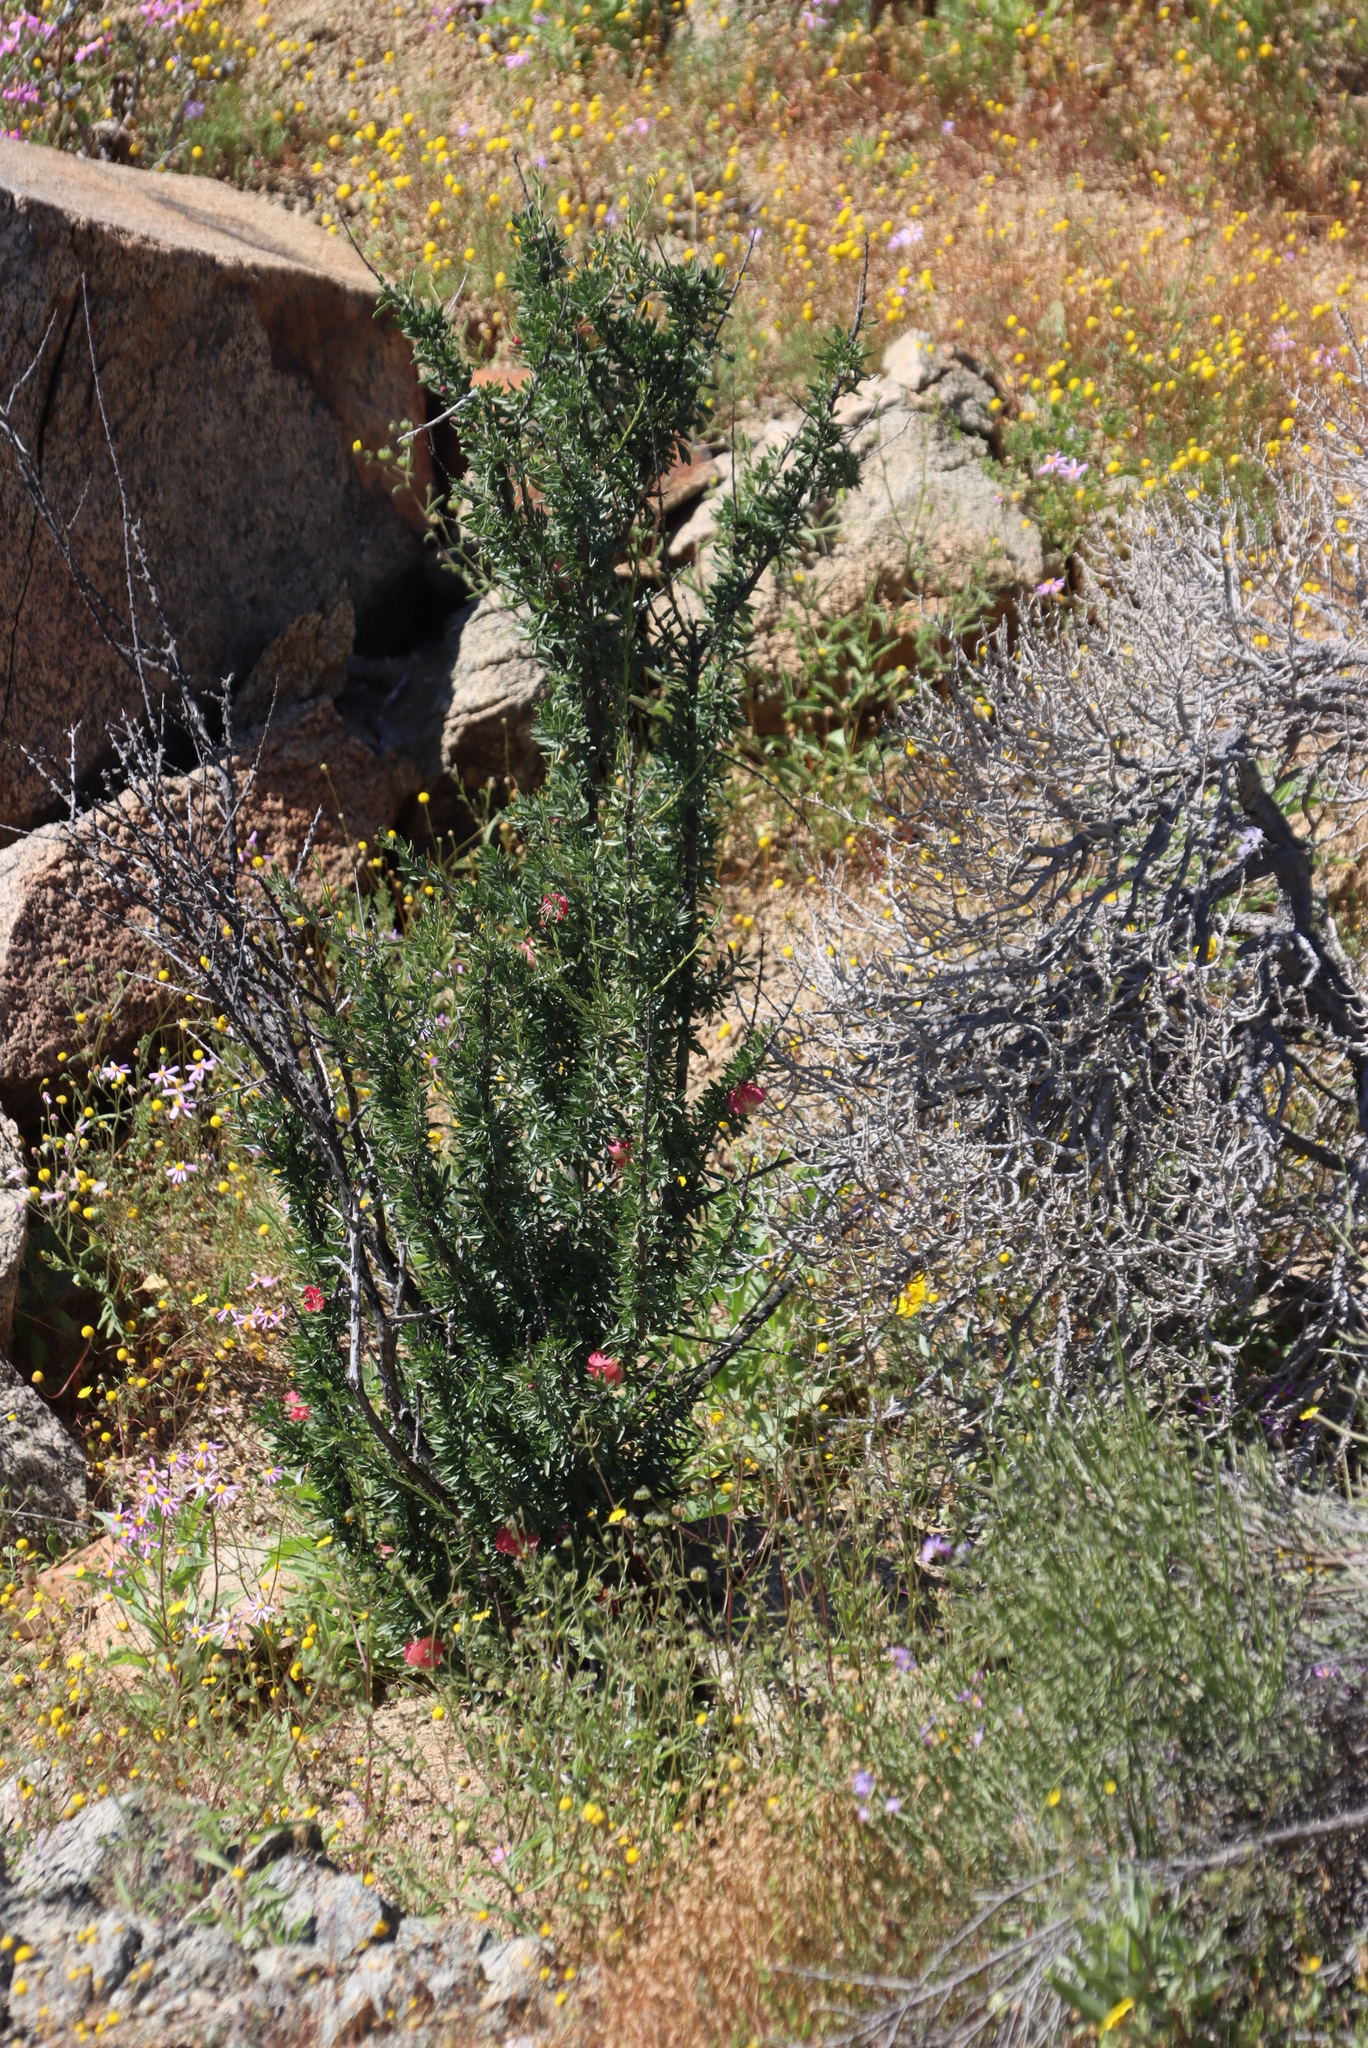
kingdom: Plantae
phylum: Tracheophyta
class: Magnoliopsida
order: Sapindales
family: Meliaceae
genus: Nymania
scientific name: Nymania capensis
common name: Chinese lantern tree
